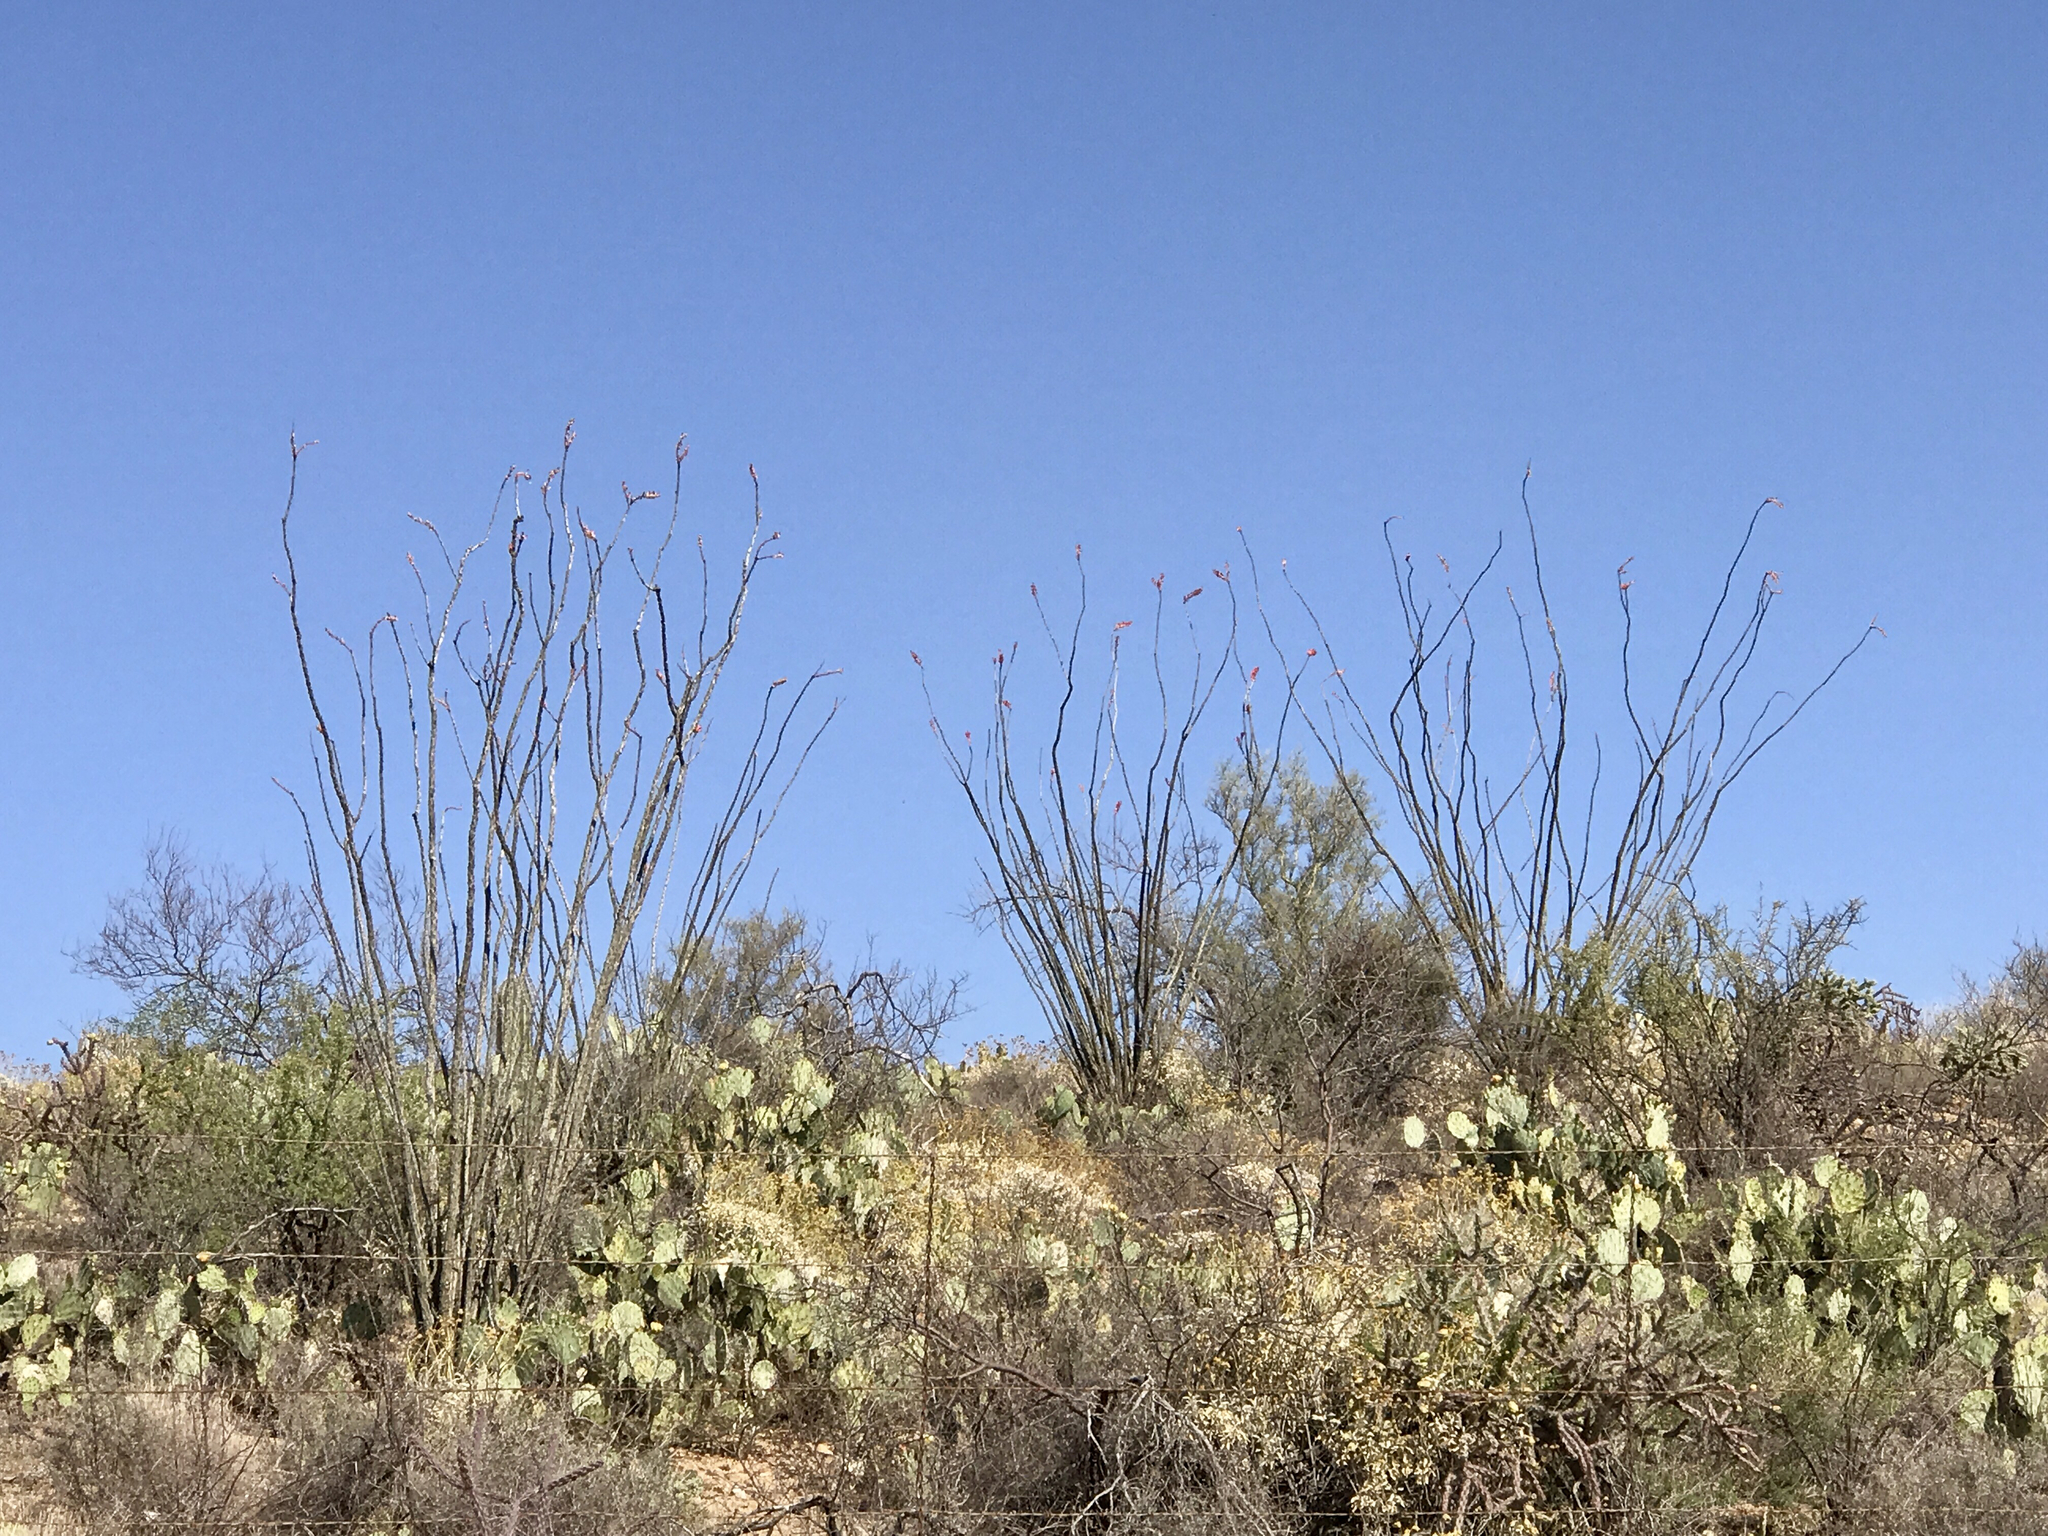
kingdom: Plantae
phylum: Tracheophyta
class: Magnoliopsida
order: Ericales
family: Fouquieriaceae
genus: Fouquieria
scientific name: Fouquieria splendens
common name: Vine-cactus
